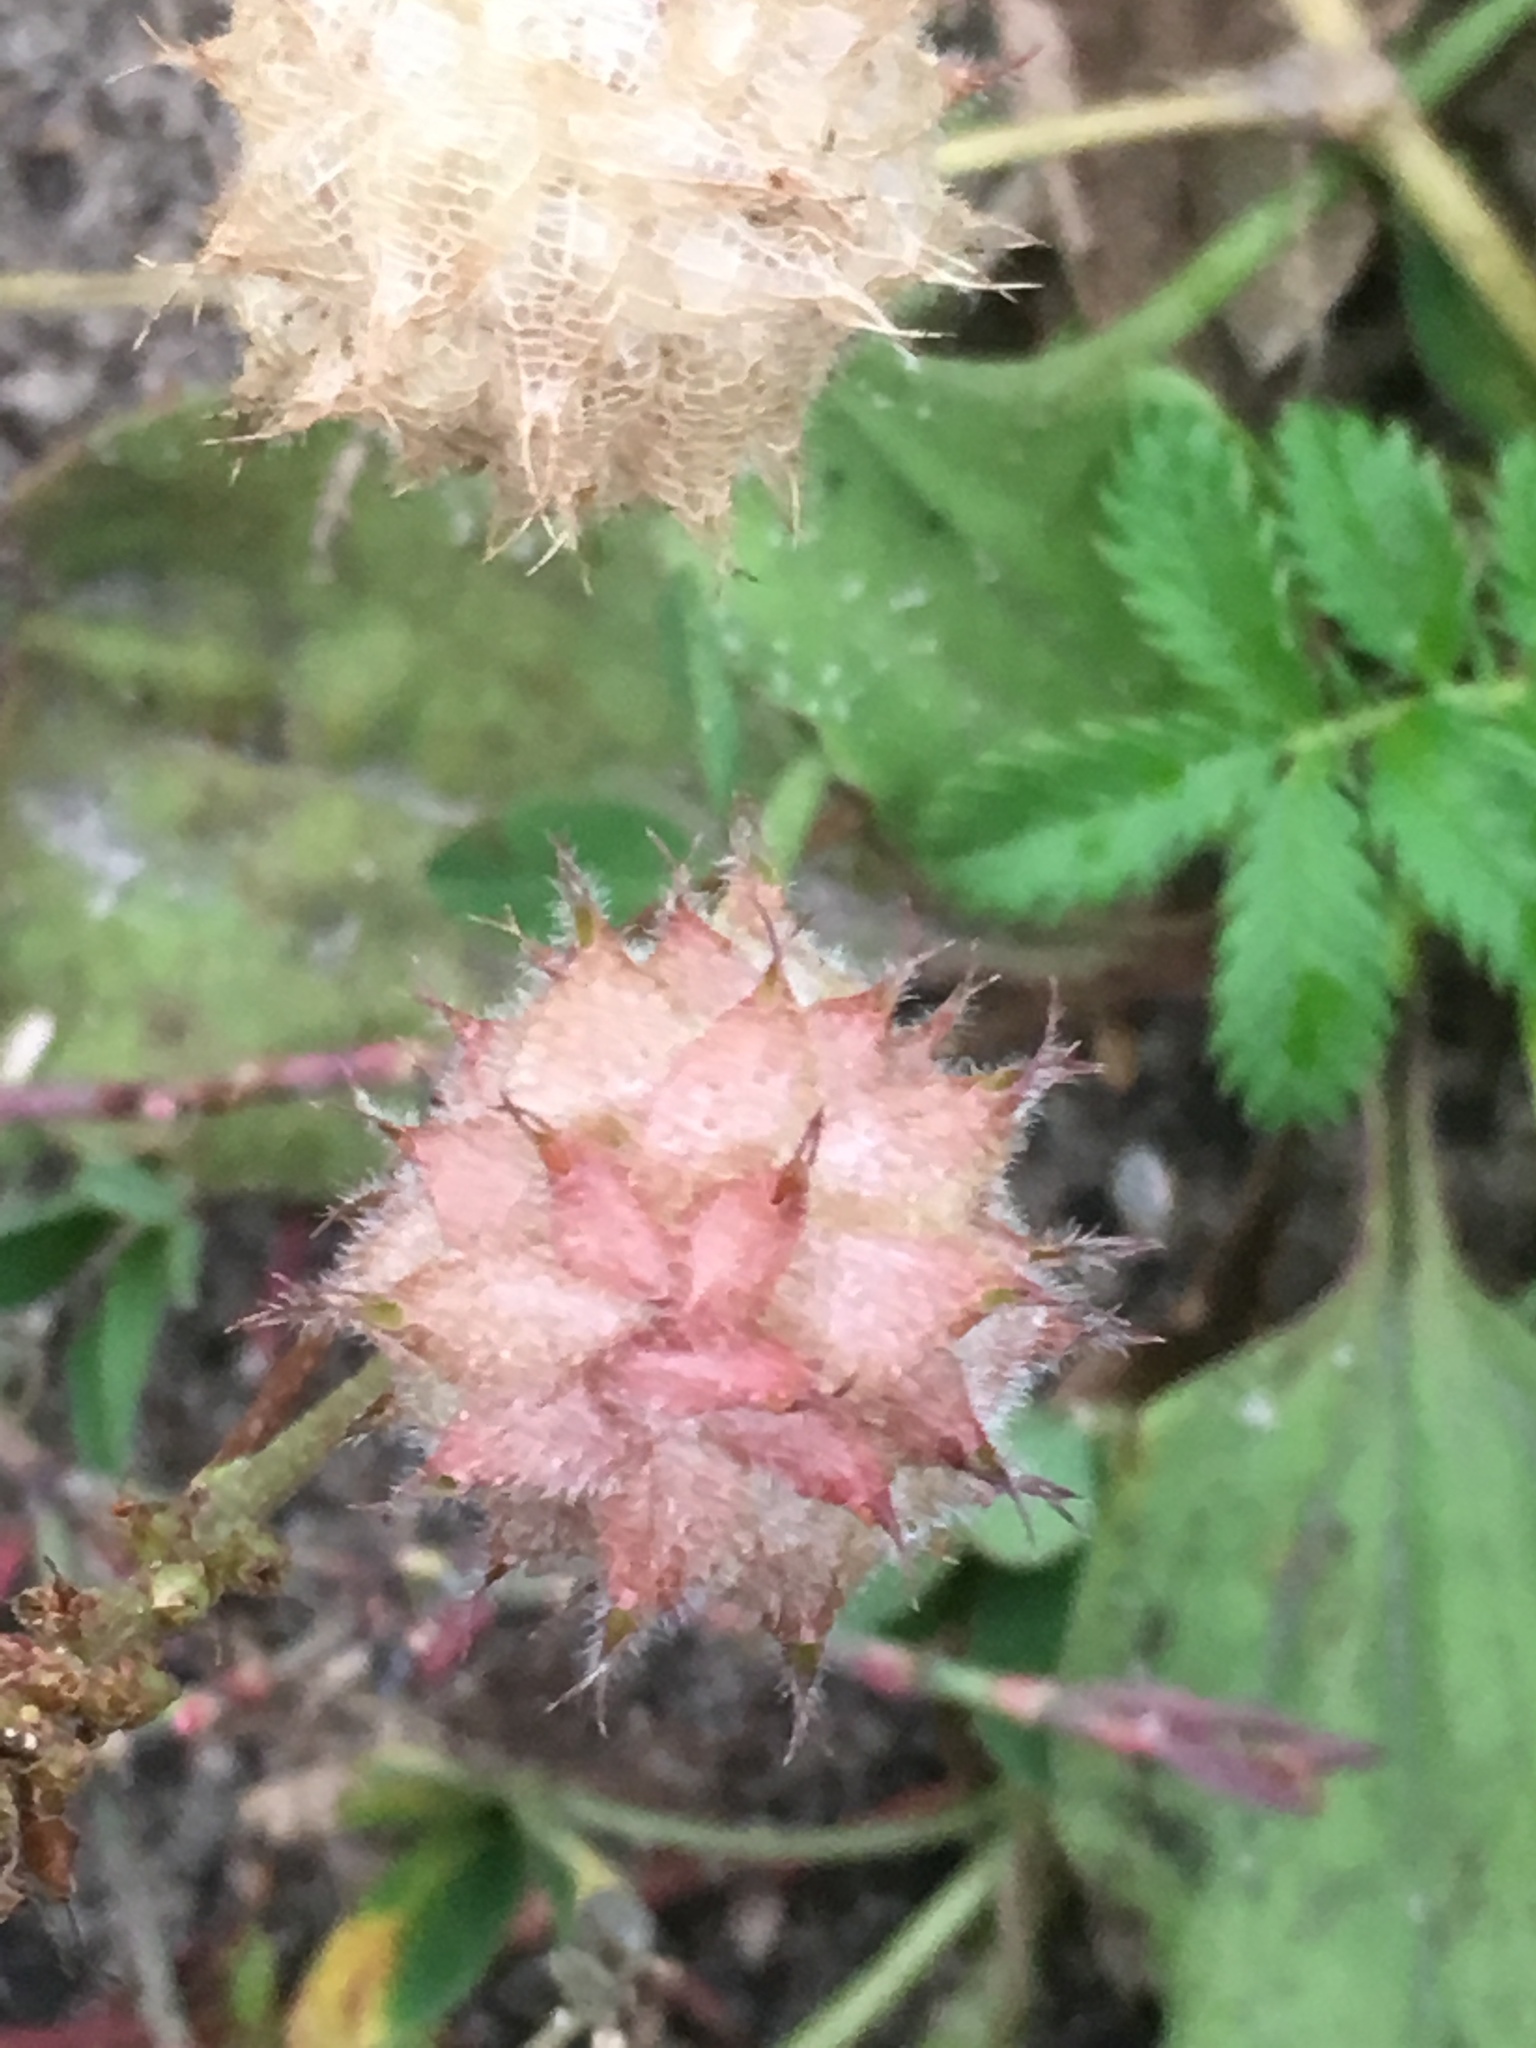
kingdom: Plantae
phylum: Tracheophyta
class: Magnoliopsida
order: Fabales
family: Fabaceae
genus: Trifolium
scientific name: Trifolium fragiferum
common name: Strawberry clover
